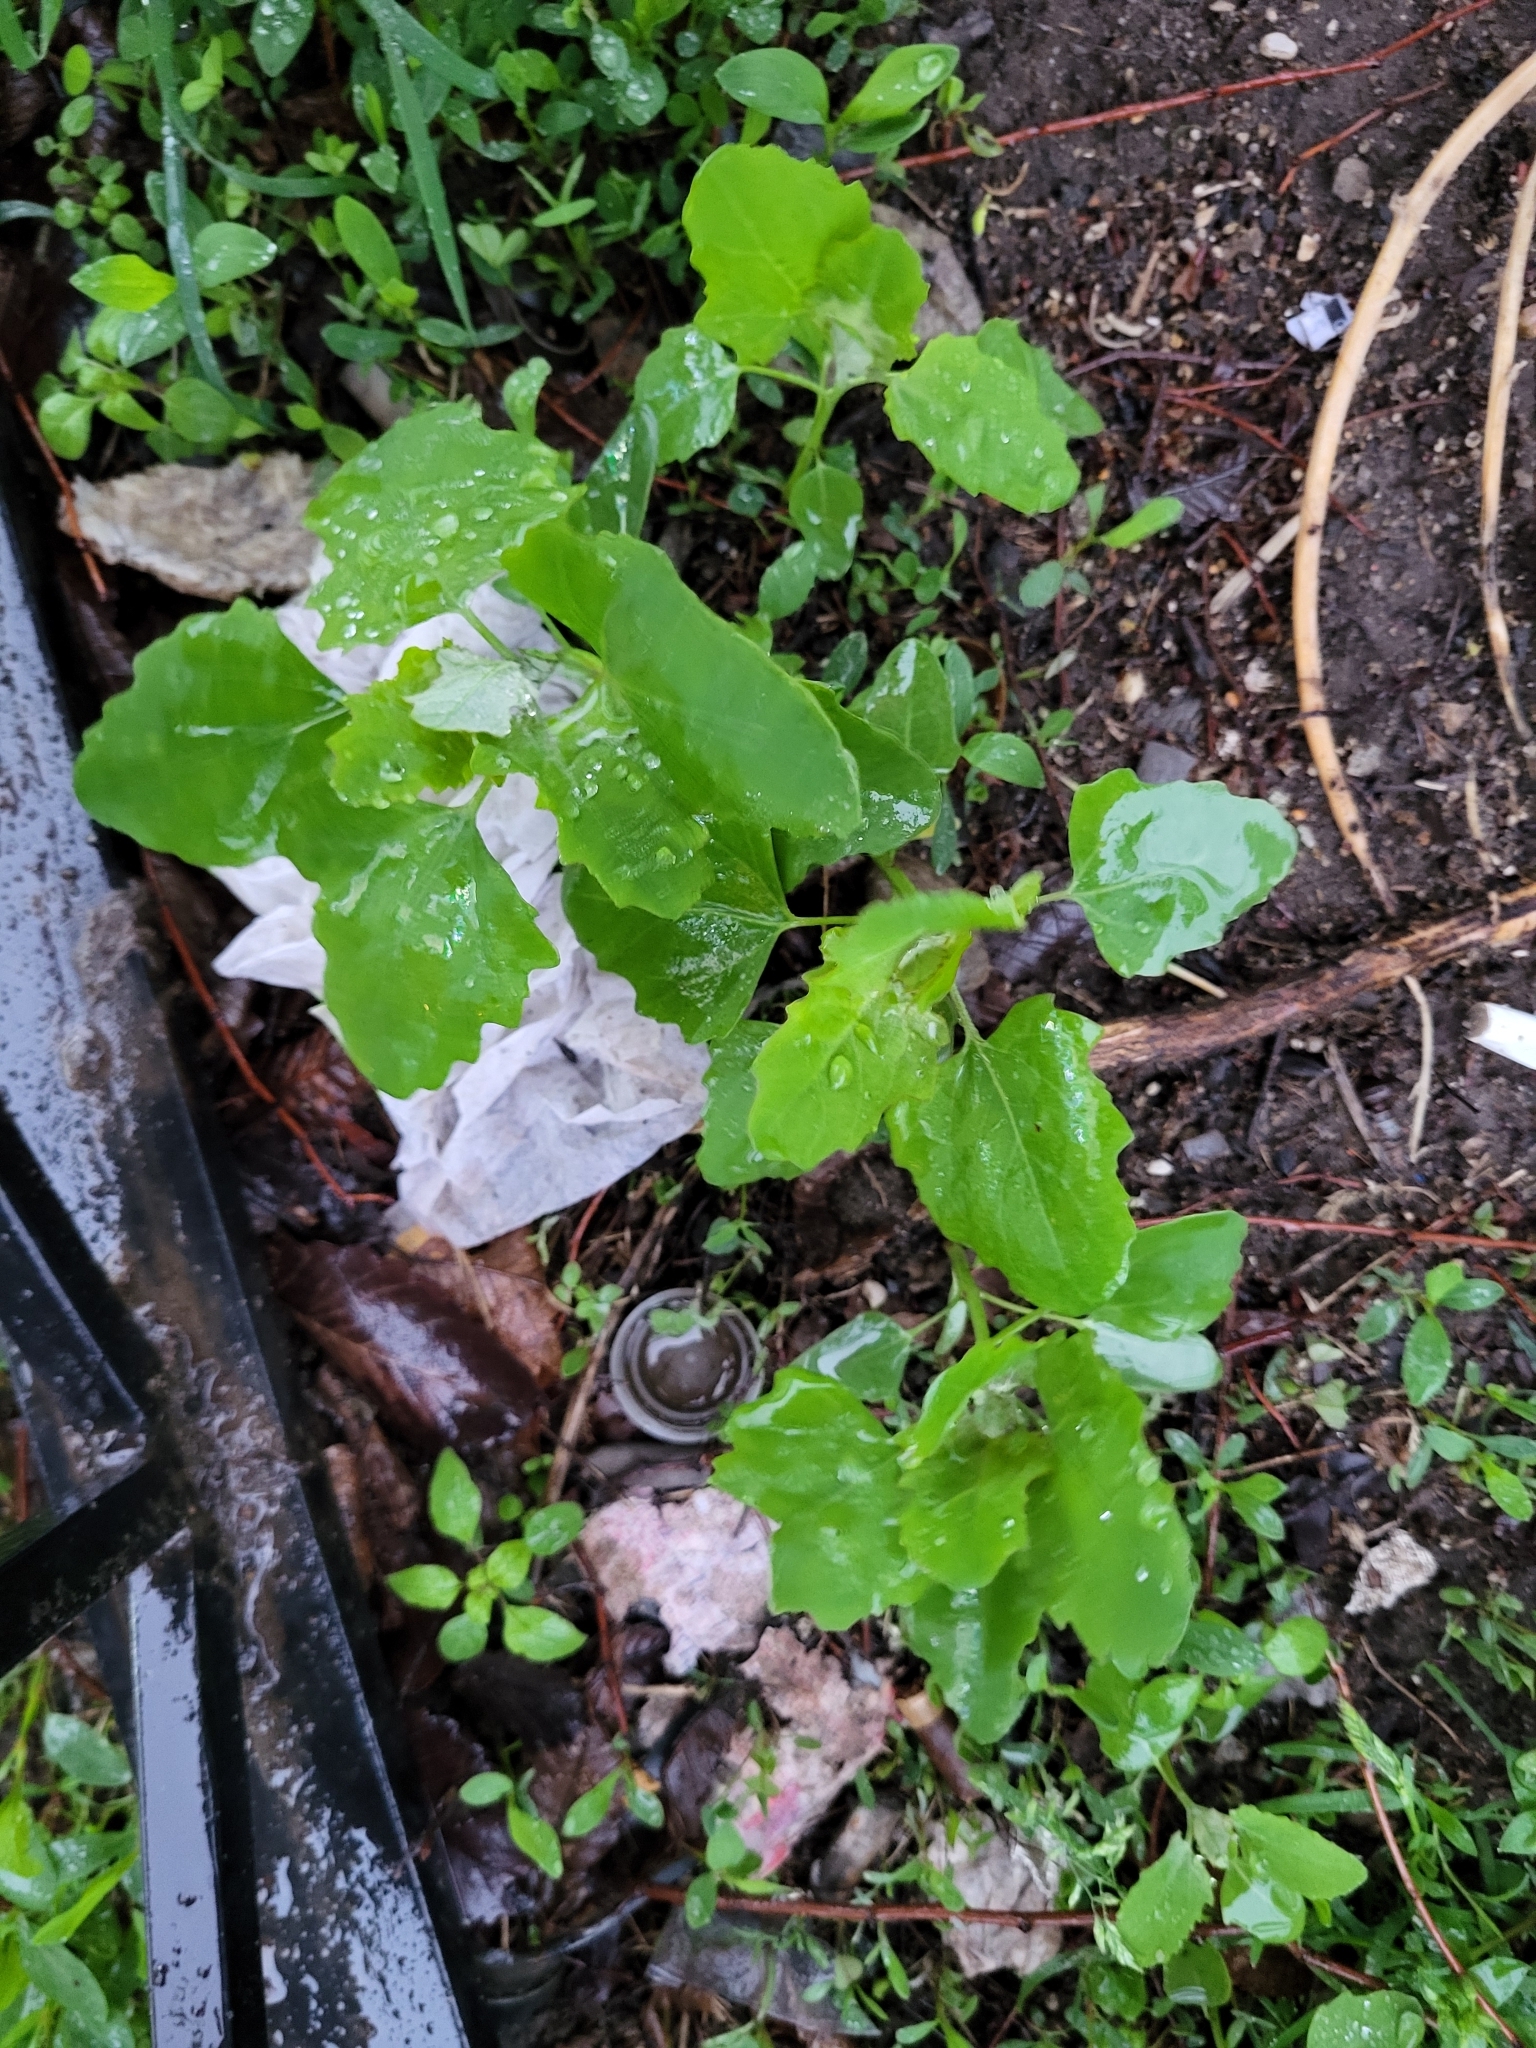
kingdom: Plantae
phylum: Tracheophyta
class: Magnoliopsida
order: Caryophyllales
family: Amaranthaceae
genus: Chenopodium
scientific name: Chenopodium album
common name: Fat-hen
